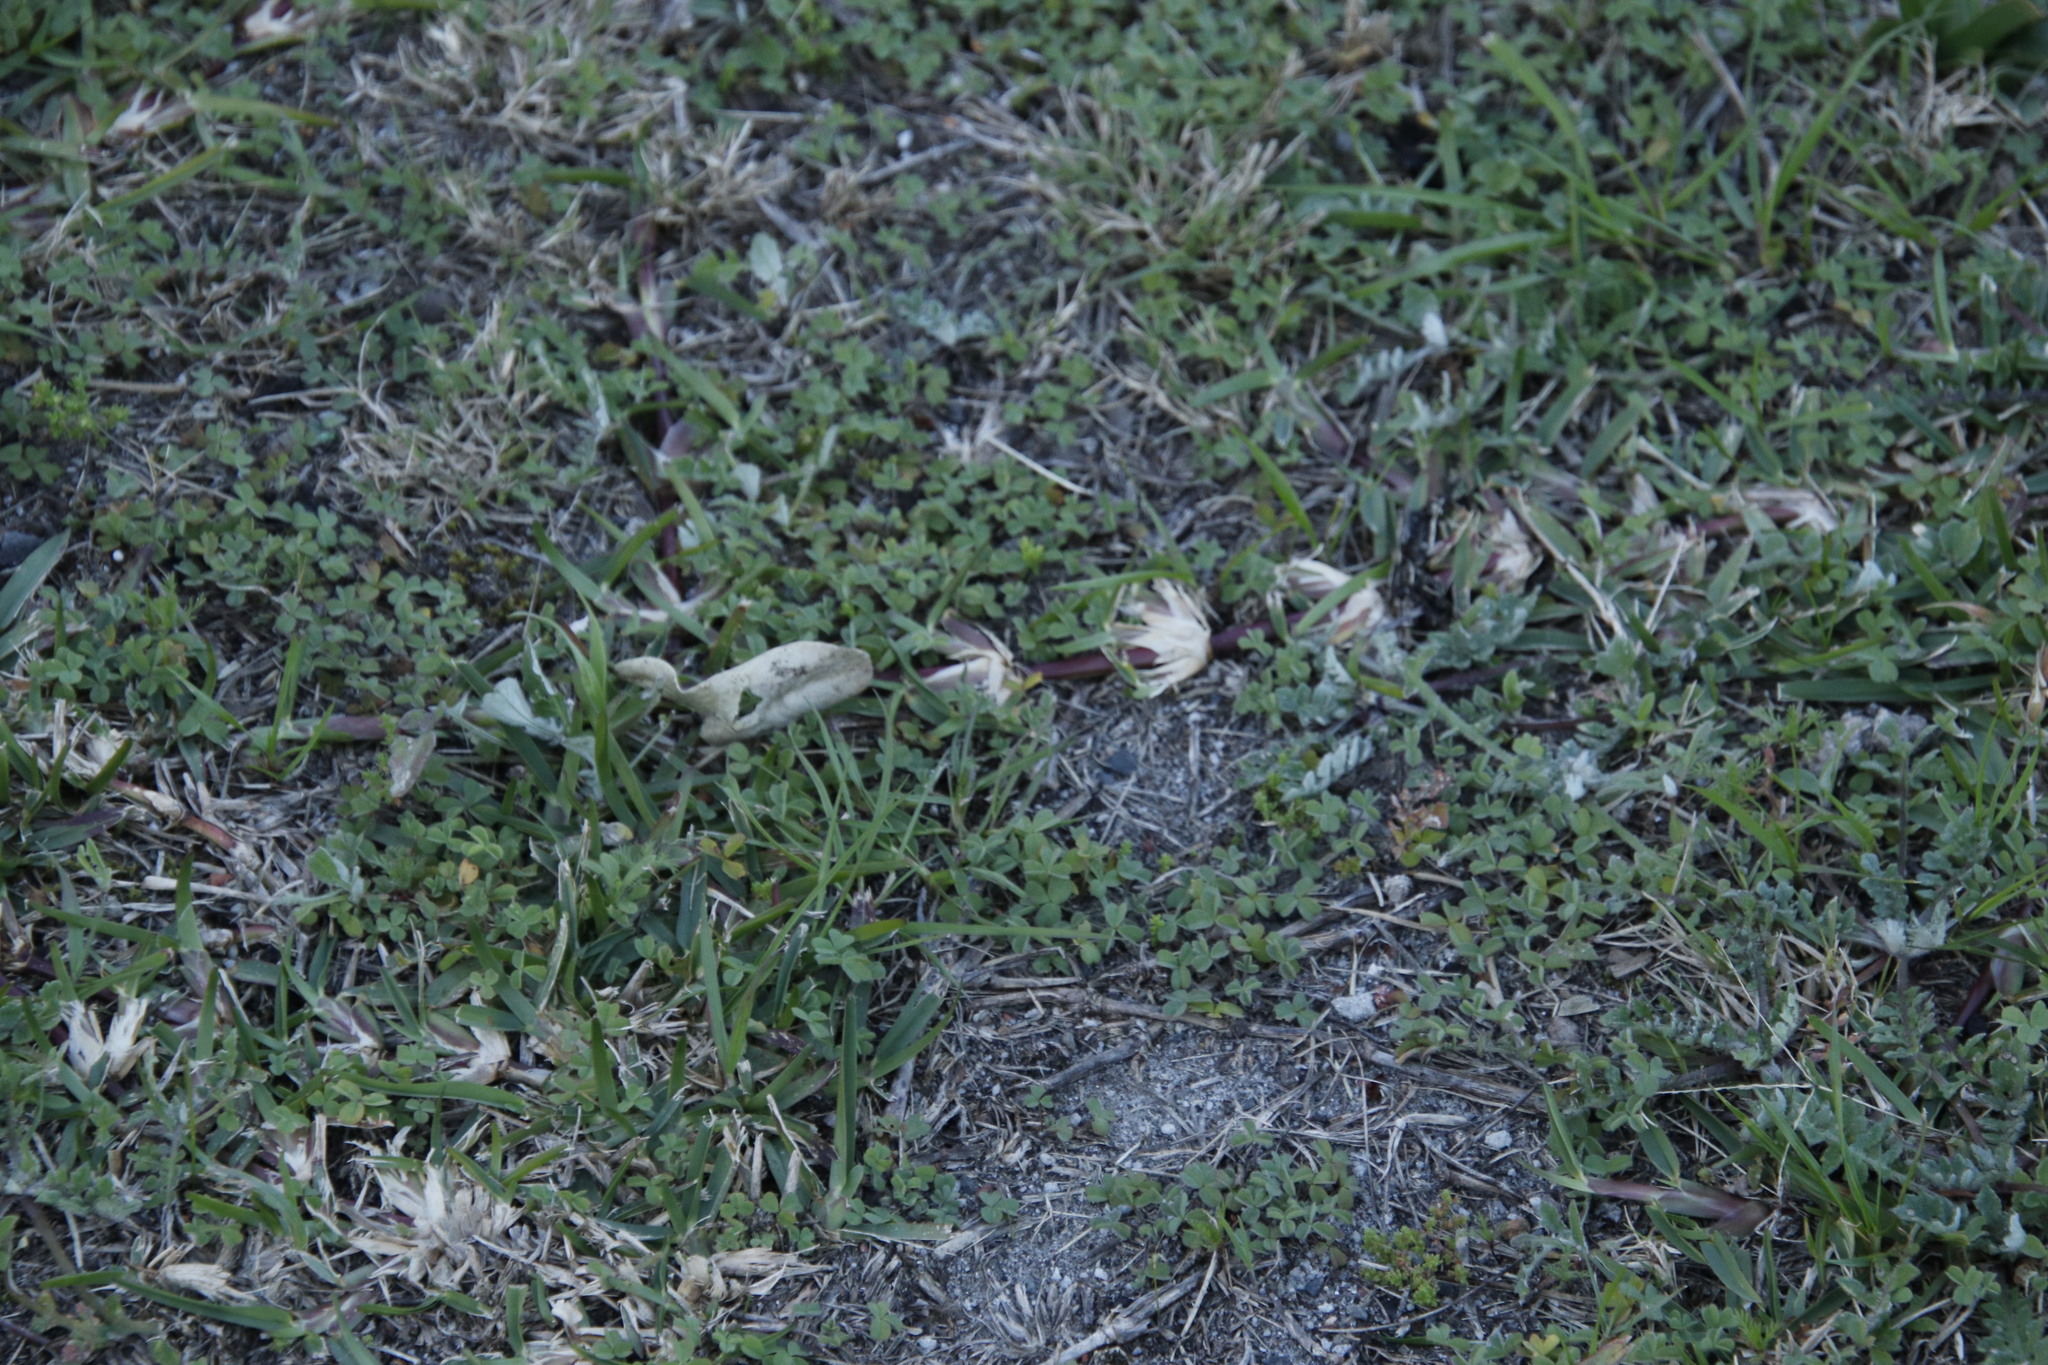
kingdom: Plantae
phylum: Tracheophyta
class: Liliopsida
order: Poales
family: Poaceae
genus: Stenotaphrum
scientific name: Stenotaphrum secundatum
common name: St. augustine grass
